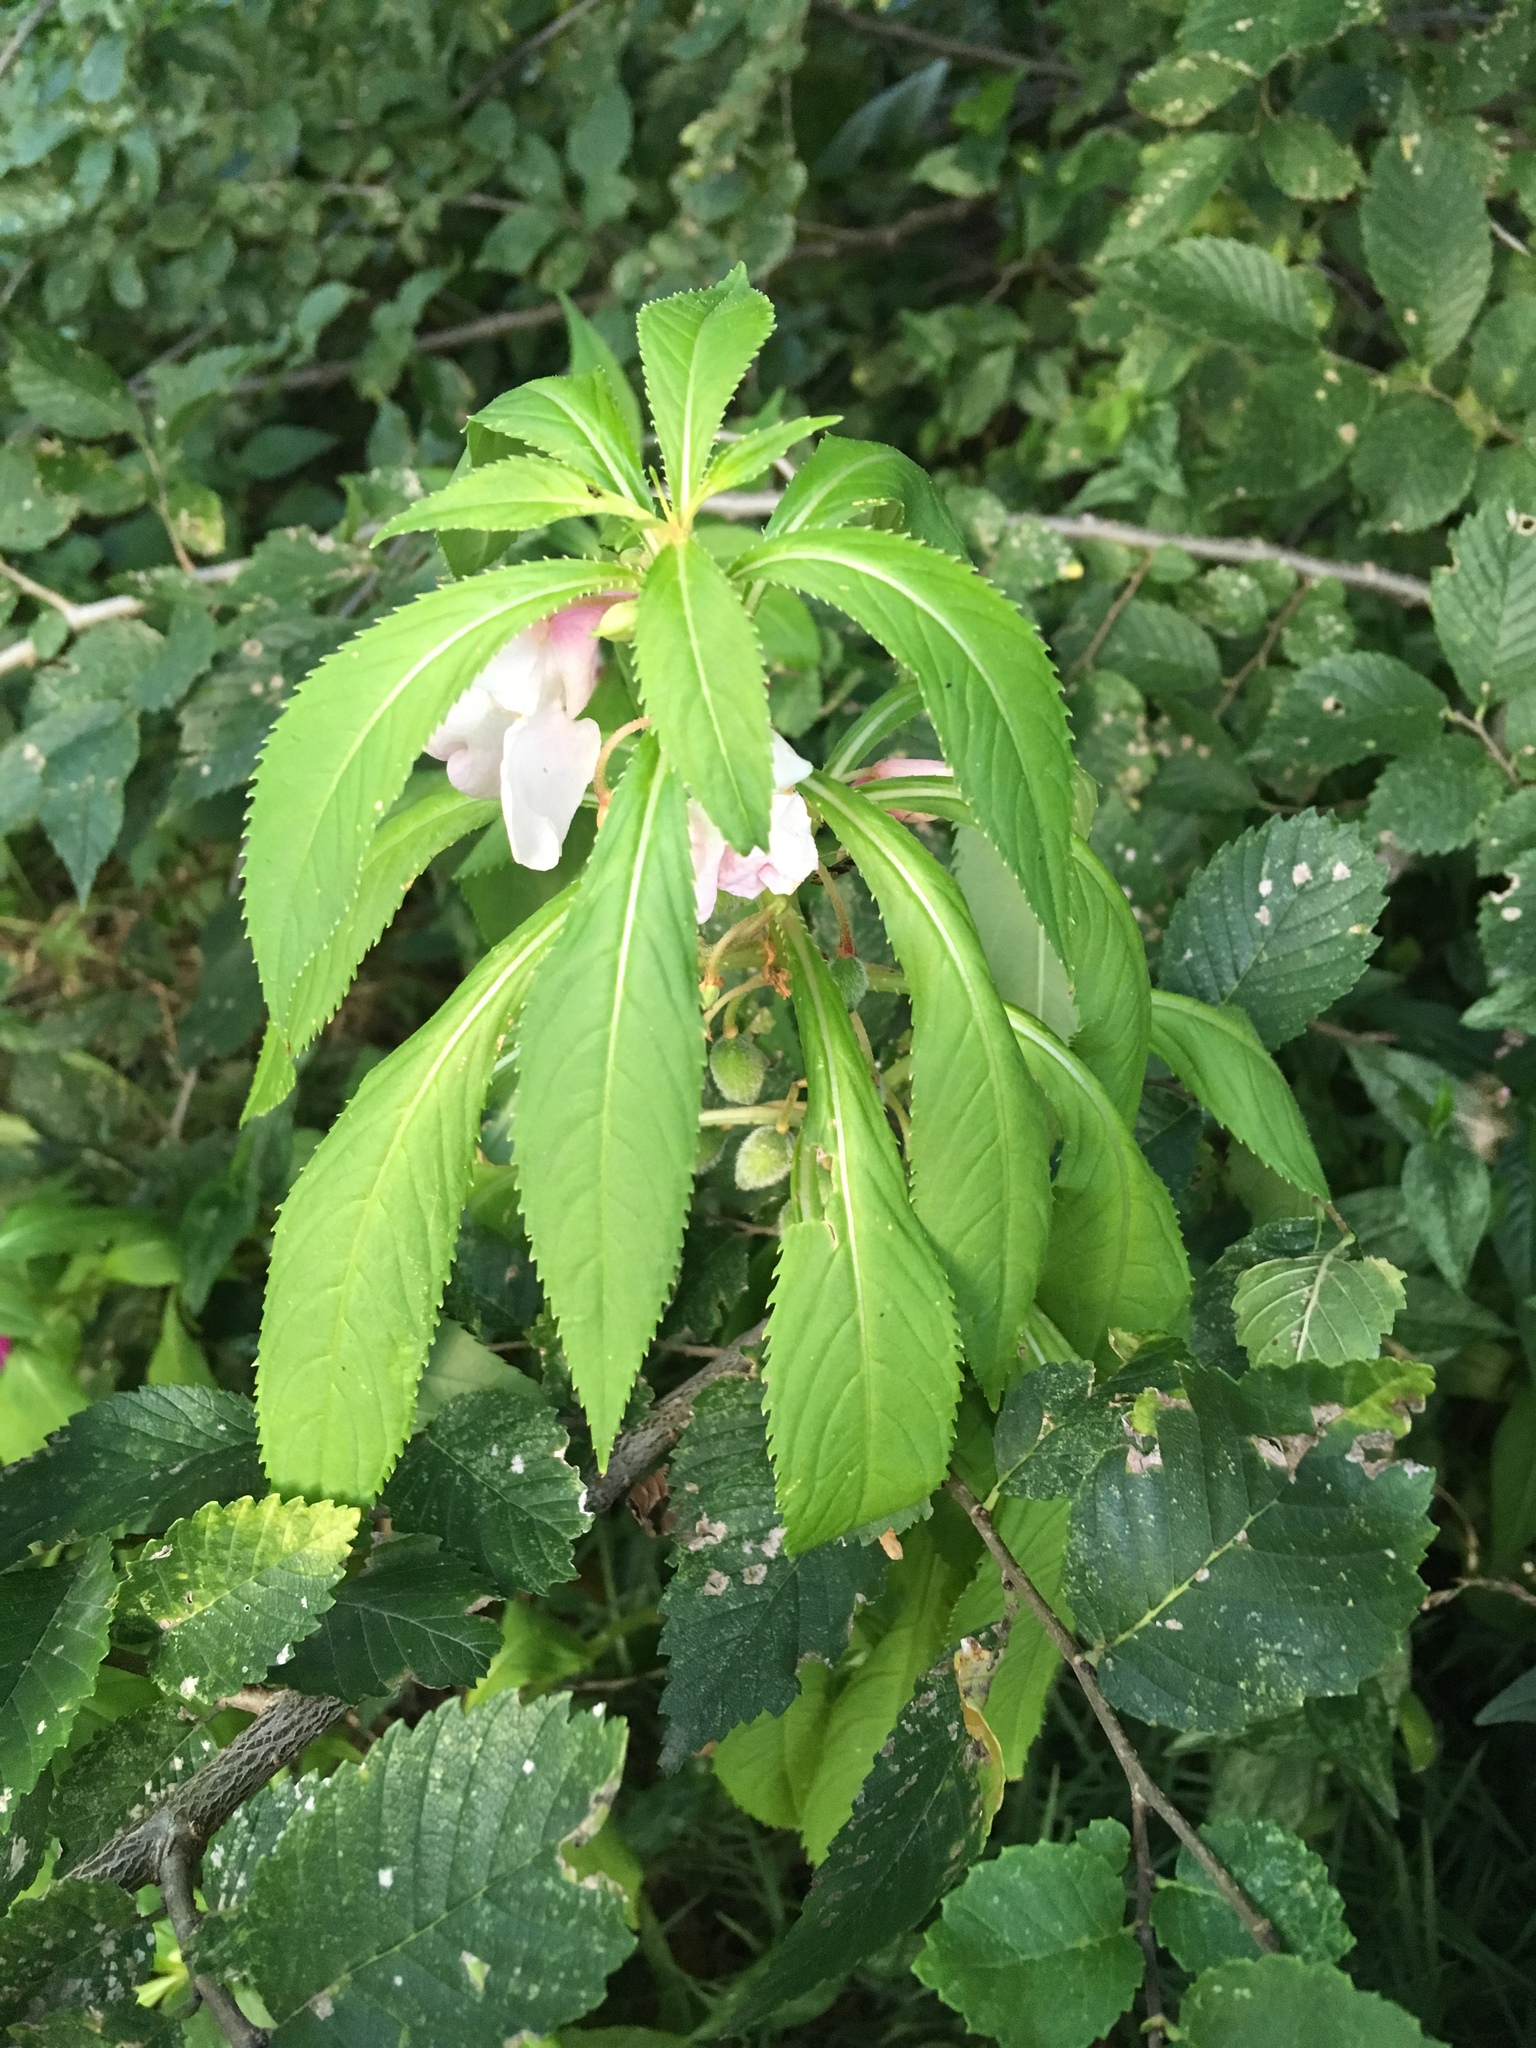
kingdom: Plantae
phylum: Tracheophyta
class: Magnoliopsida
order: Ericales
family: Balsaminaceae
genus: Impatiens
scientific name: Impatiens balsamina
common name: Balsam
